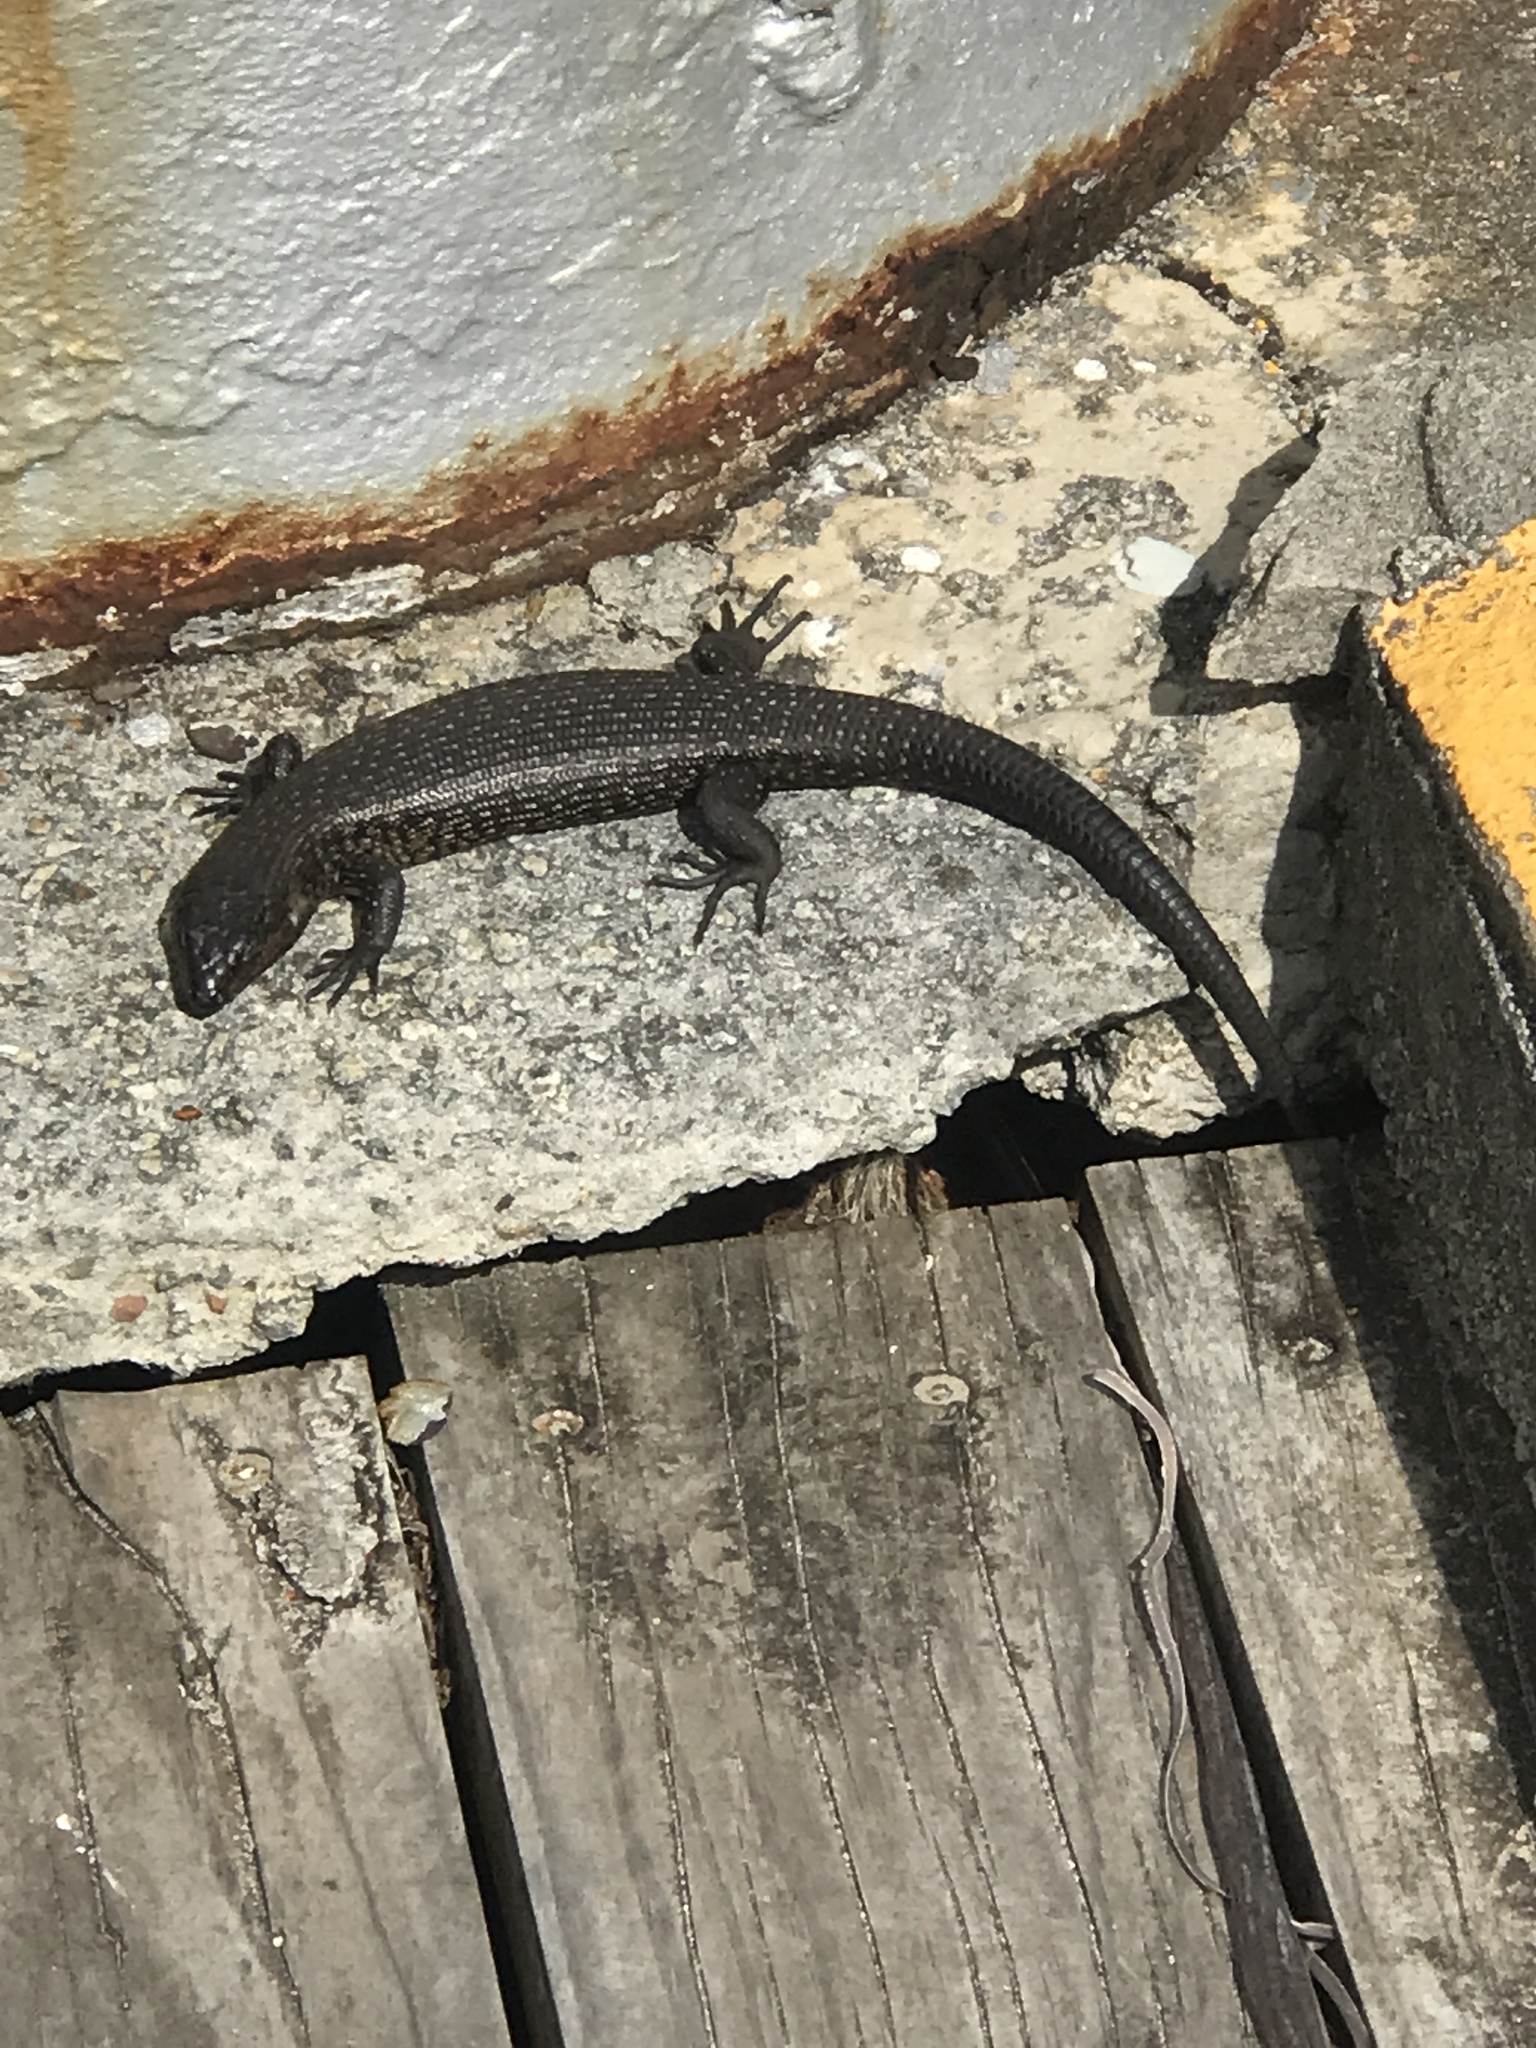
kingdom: Animalia
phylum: Chordata
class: Squamata
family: Scincidae
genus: Egernia
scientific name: Egernia kingii
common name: King's skink
